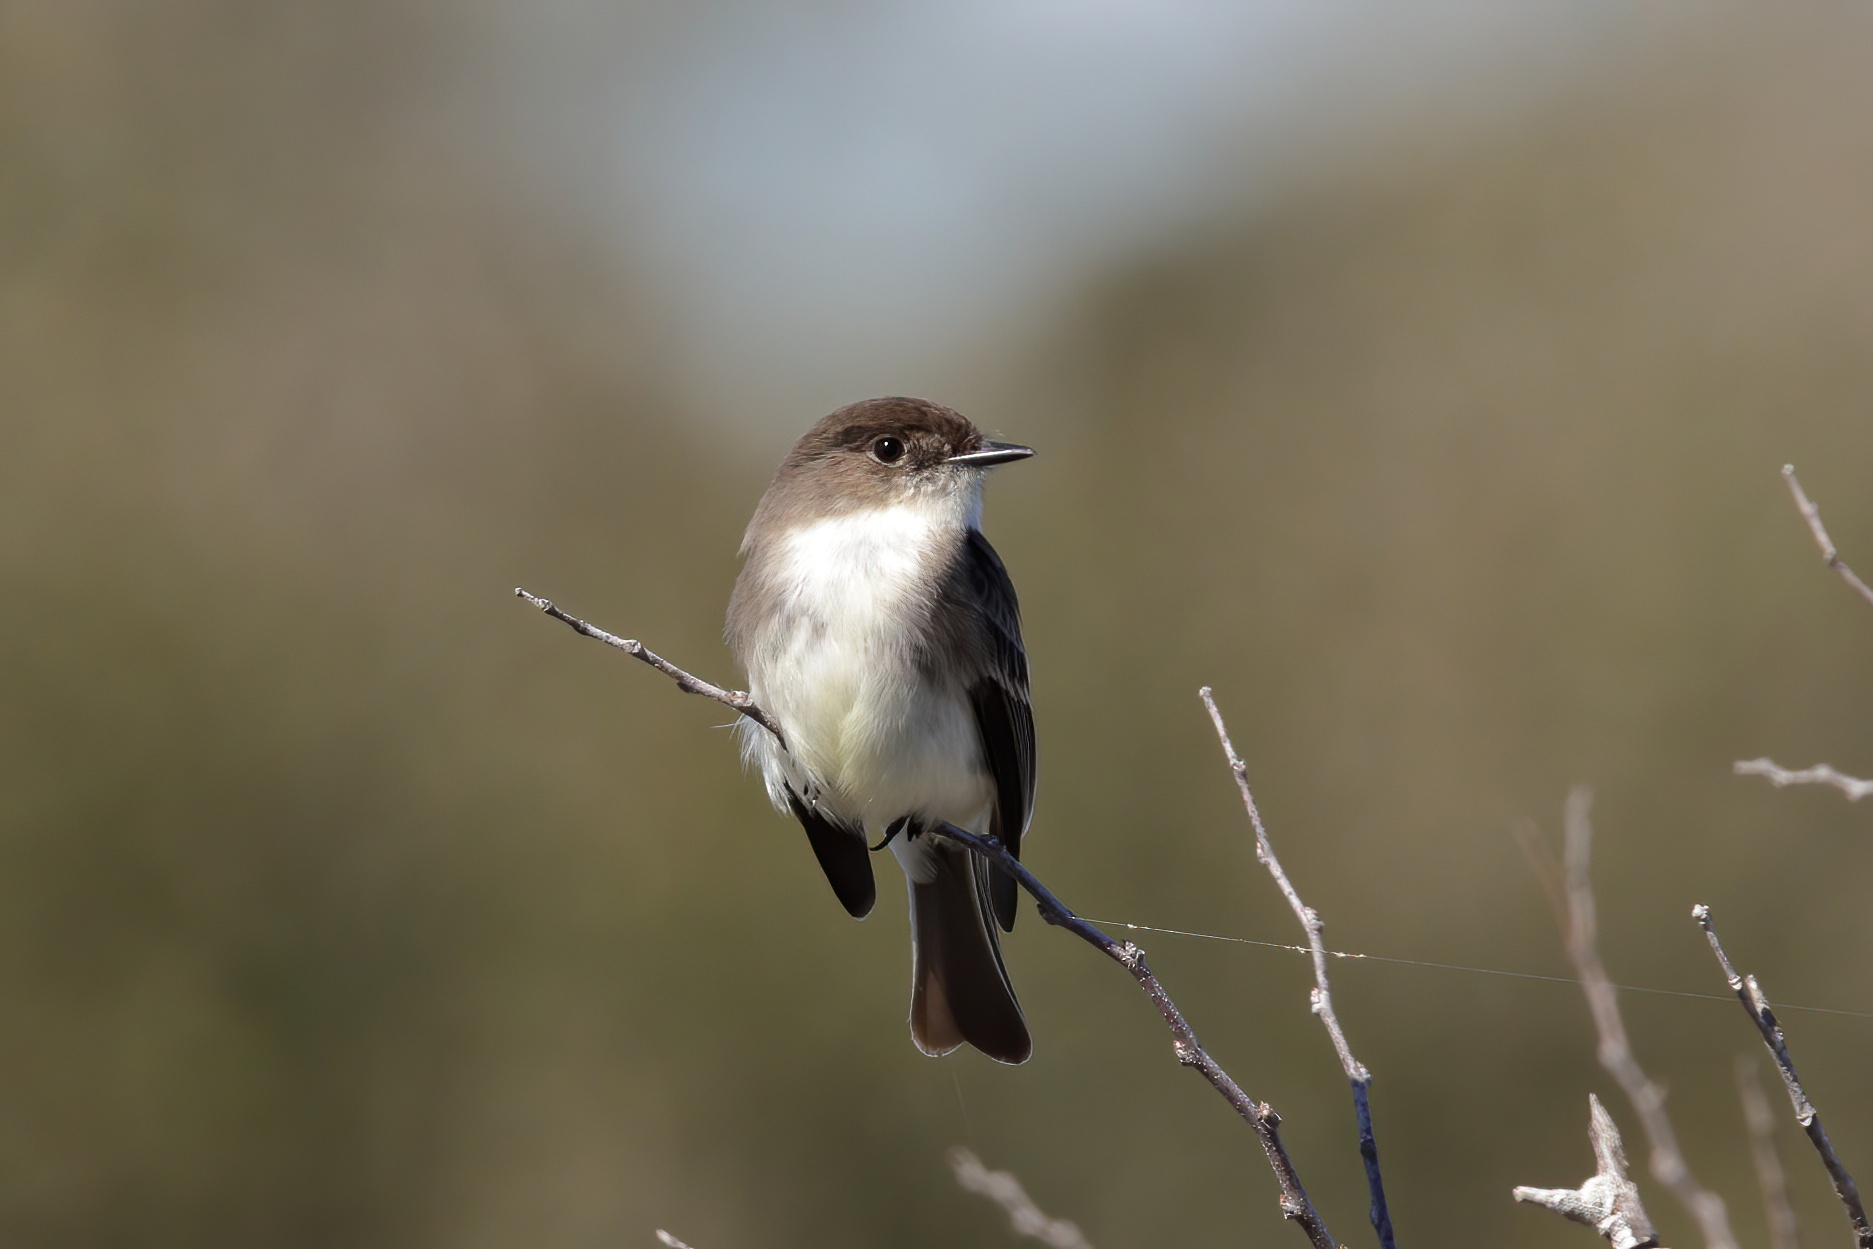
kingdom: Animalia
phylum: Chordata
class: Aves
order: Passeriformes
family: Tyrannidae
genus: Sayornis
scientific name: Sayornis phoebe
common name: Eastern phoebe
